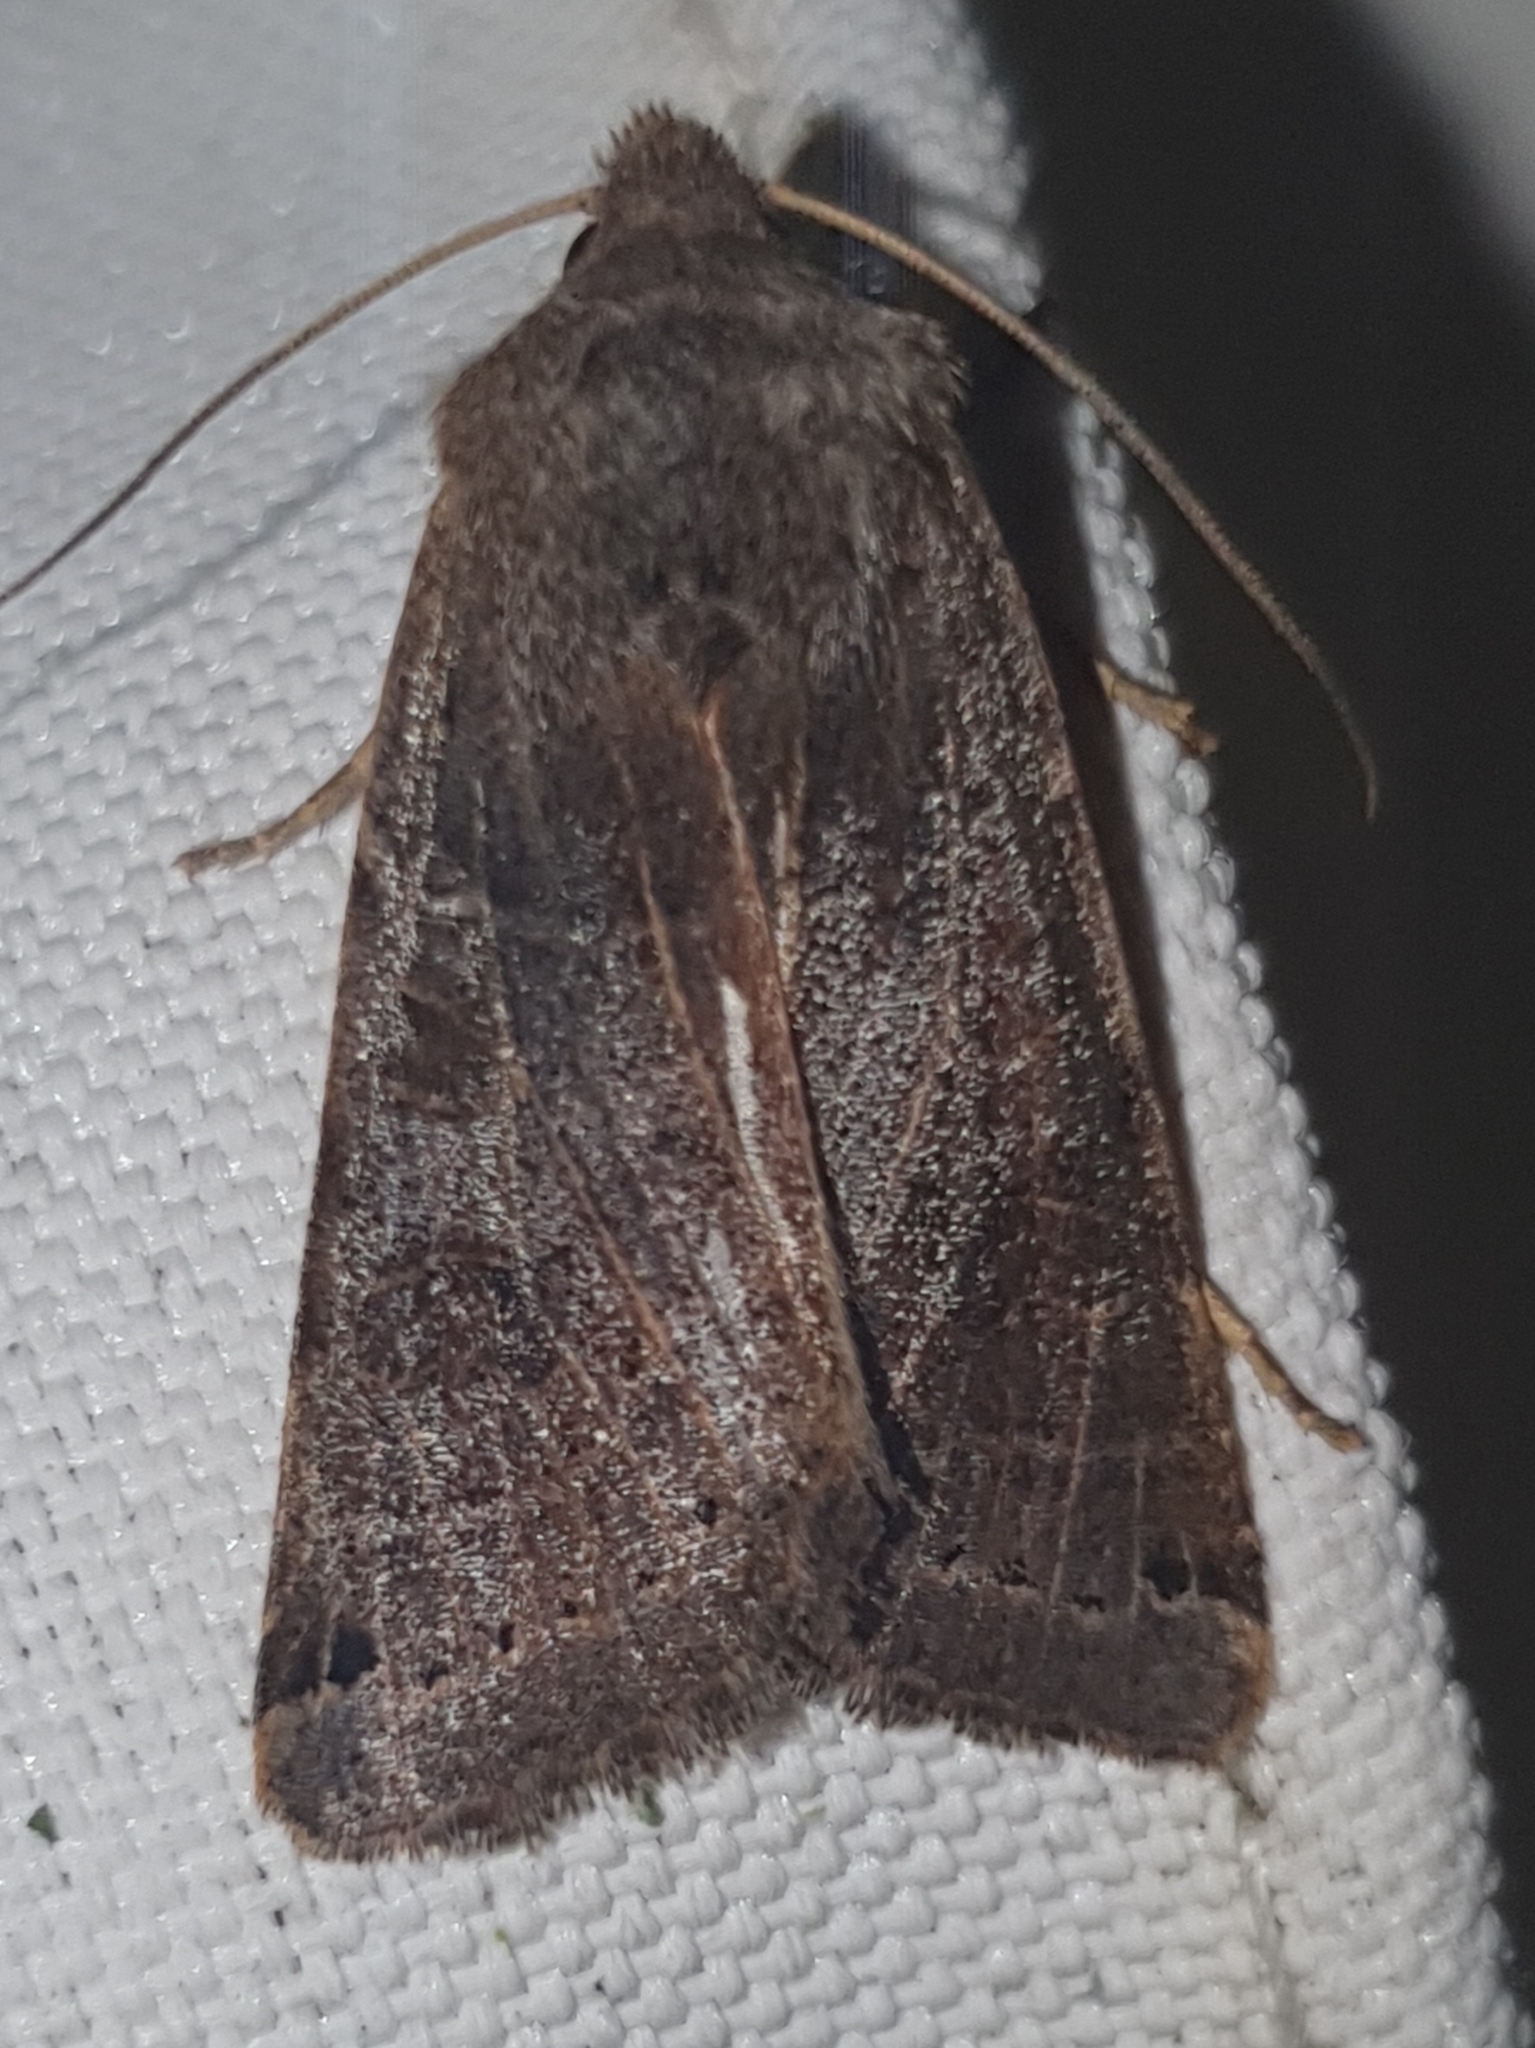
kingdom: Animalia
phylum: Arthropoda
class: Insecta
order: Lepidoptera
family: Noctuidae
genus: Agrochola
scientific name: Agrochola lunosa
